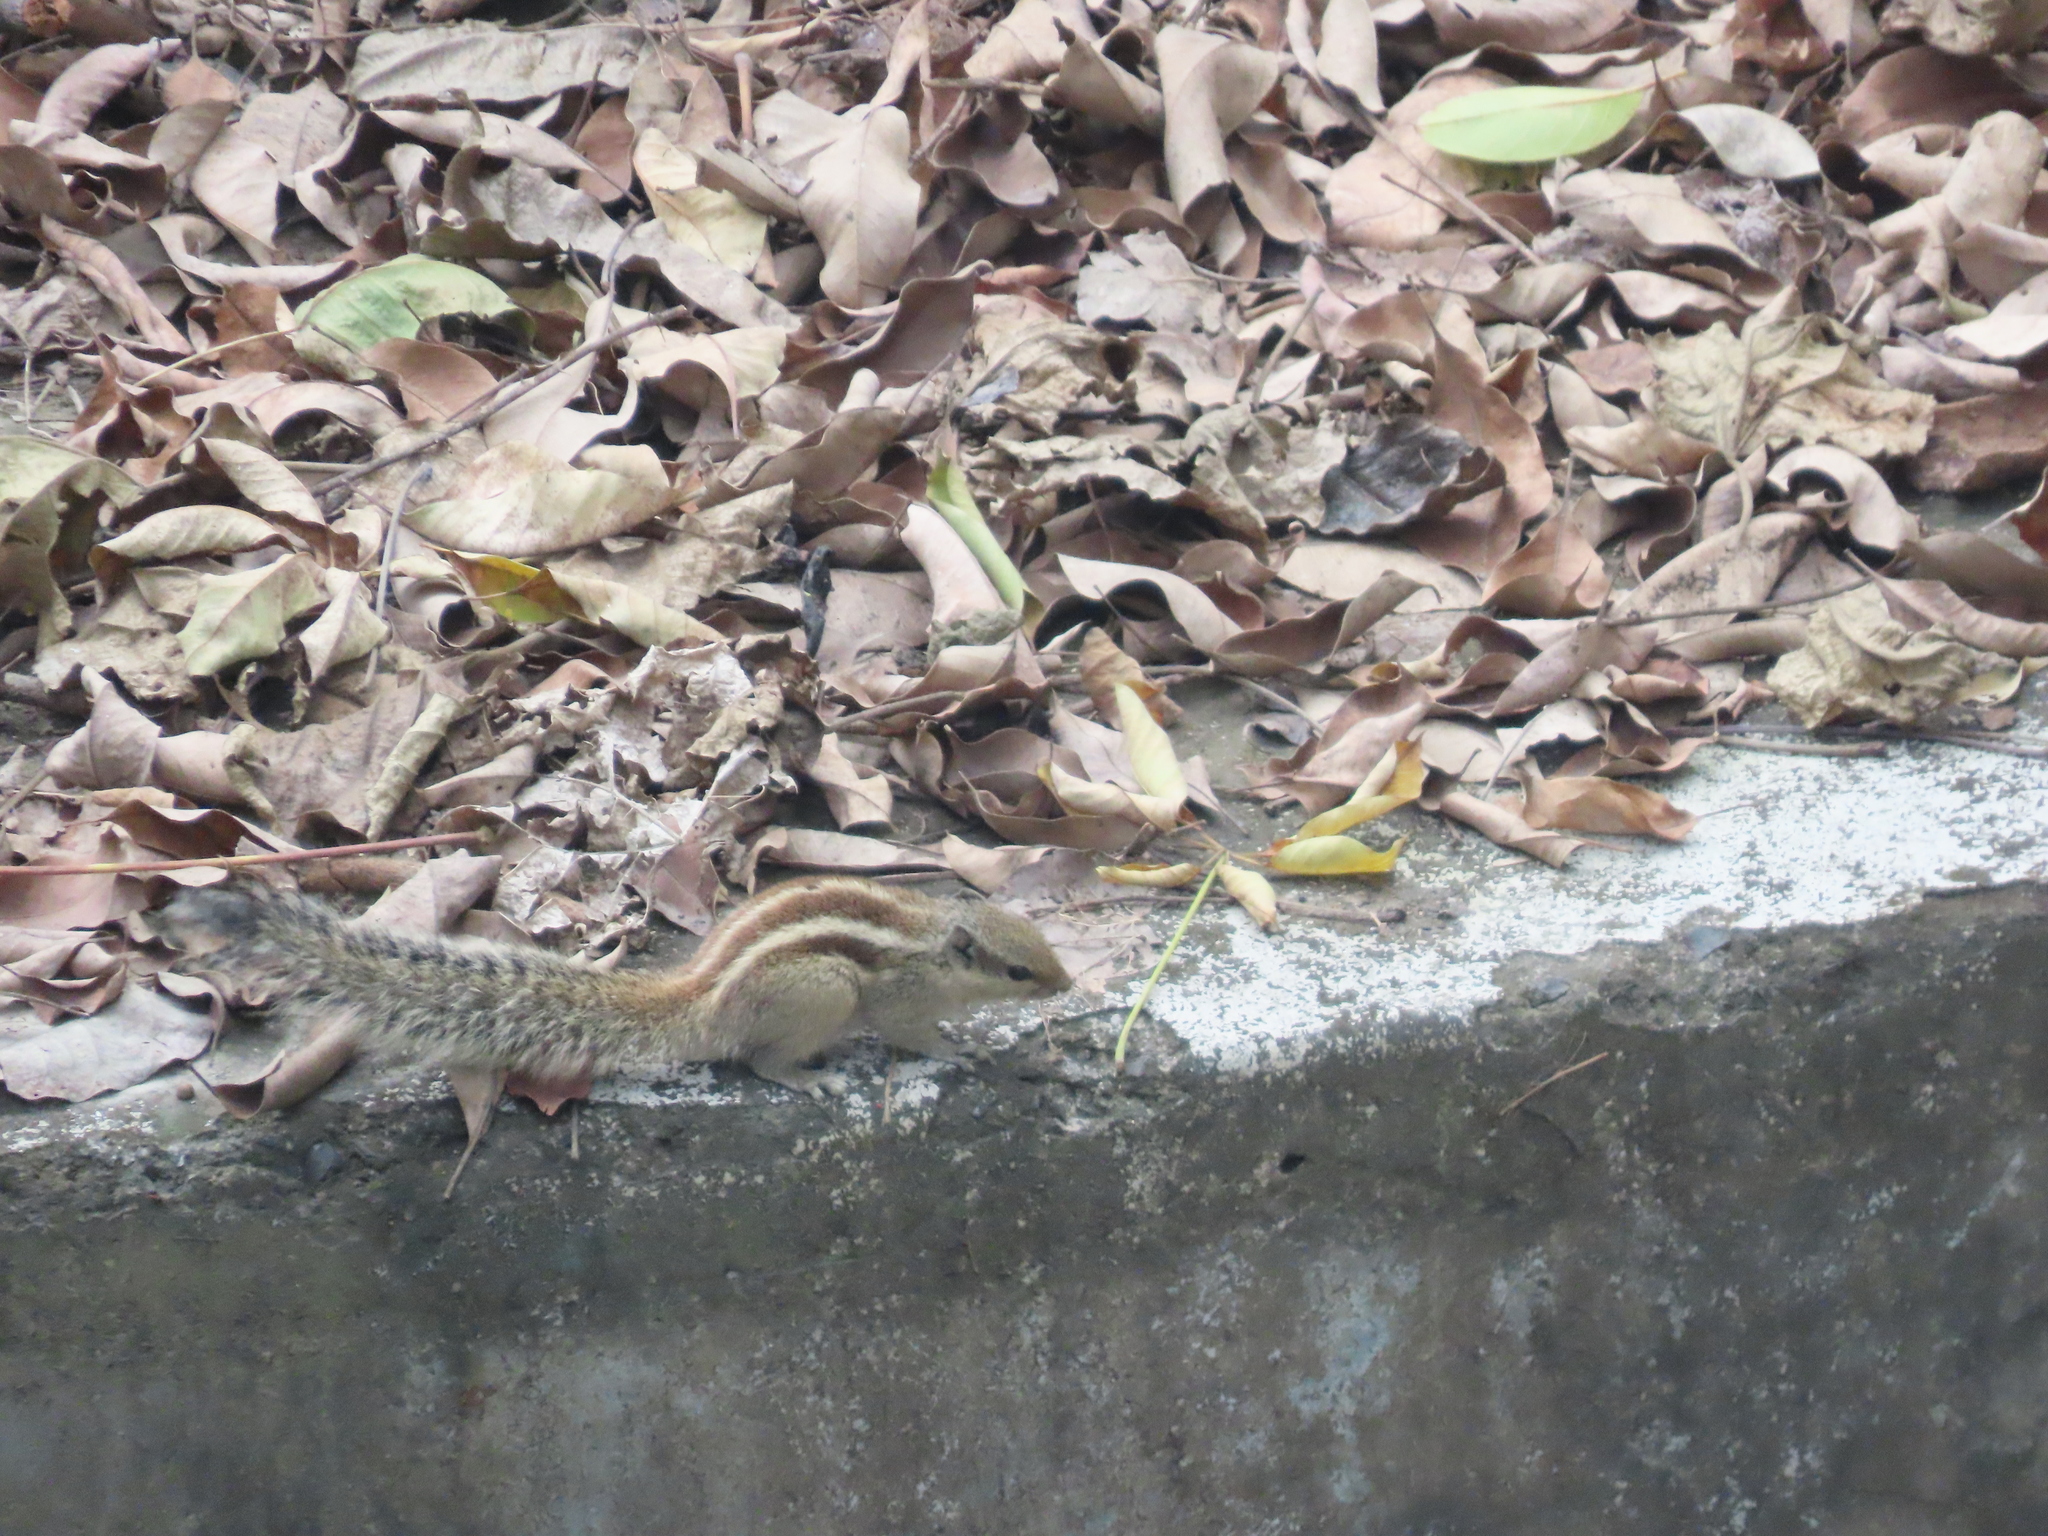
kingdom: Animalia
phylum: Chordata
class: Mammalia
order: Rodentia
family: Sciuridae
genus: Funambulus
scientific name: Funambulus pennantii
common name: Northern palm squirrel
